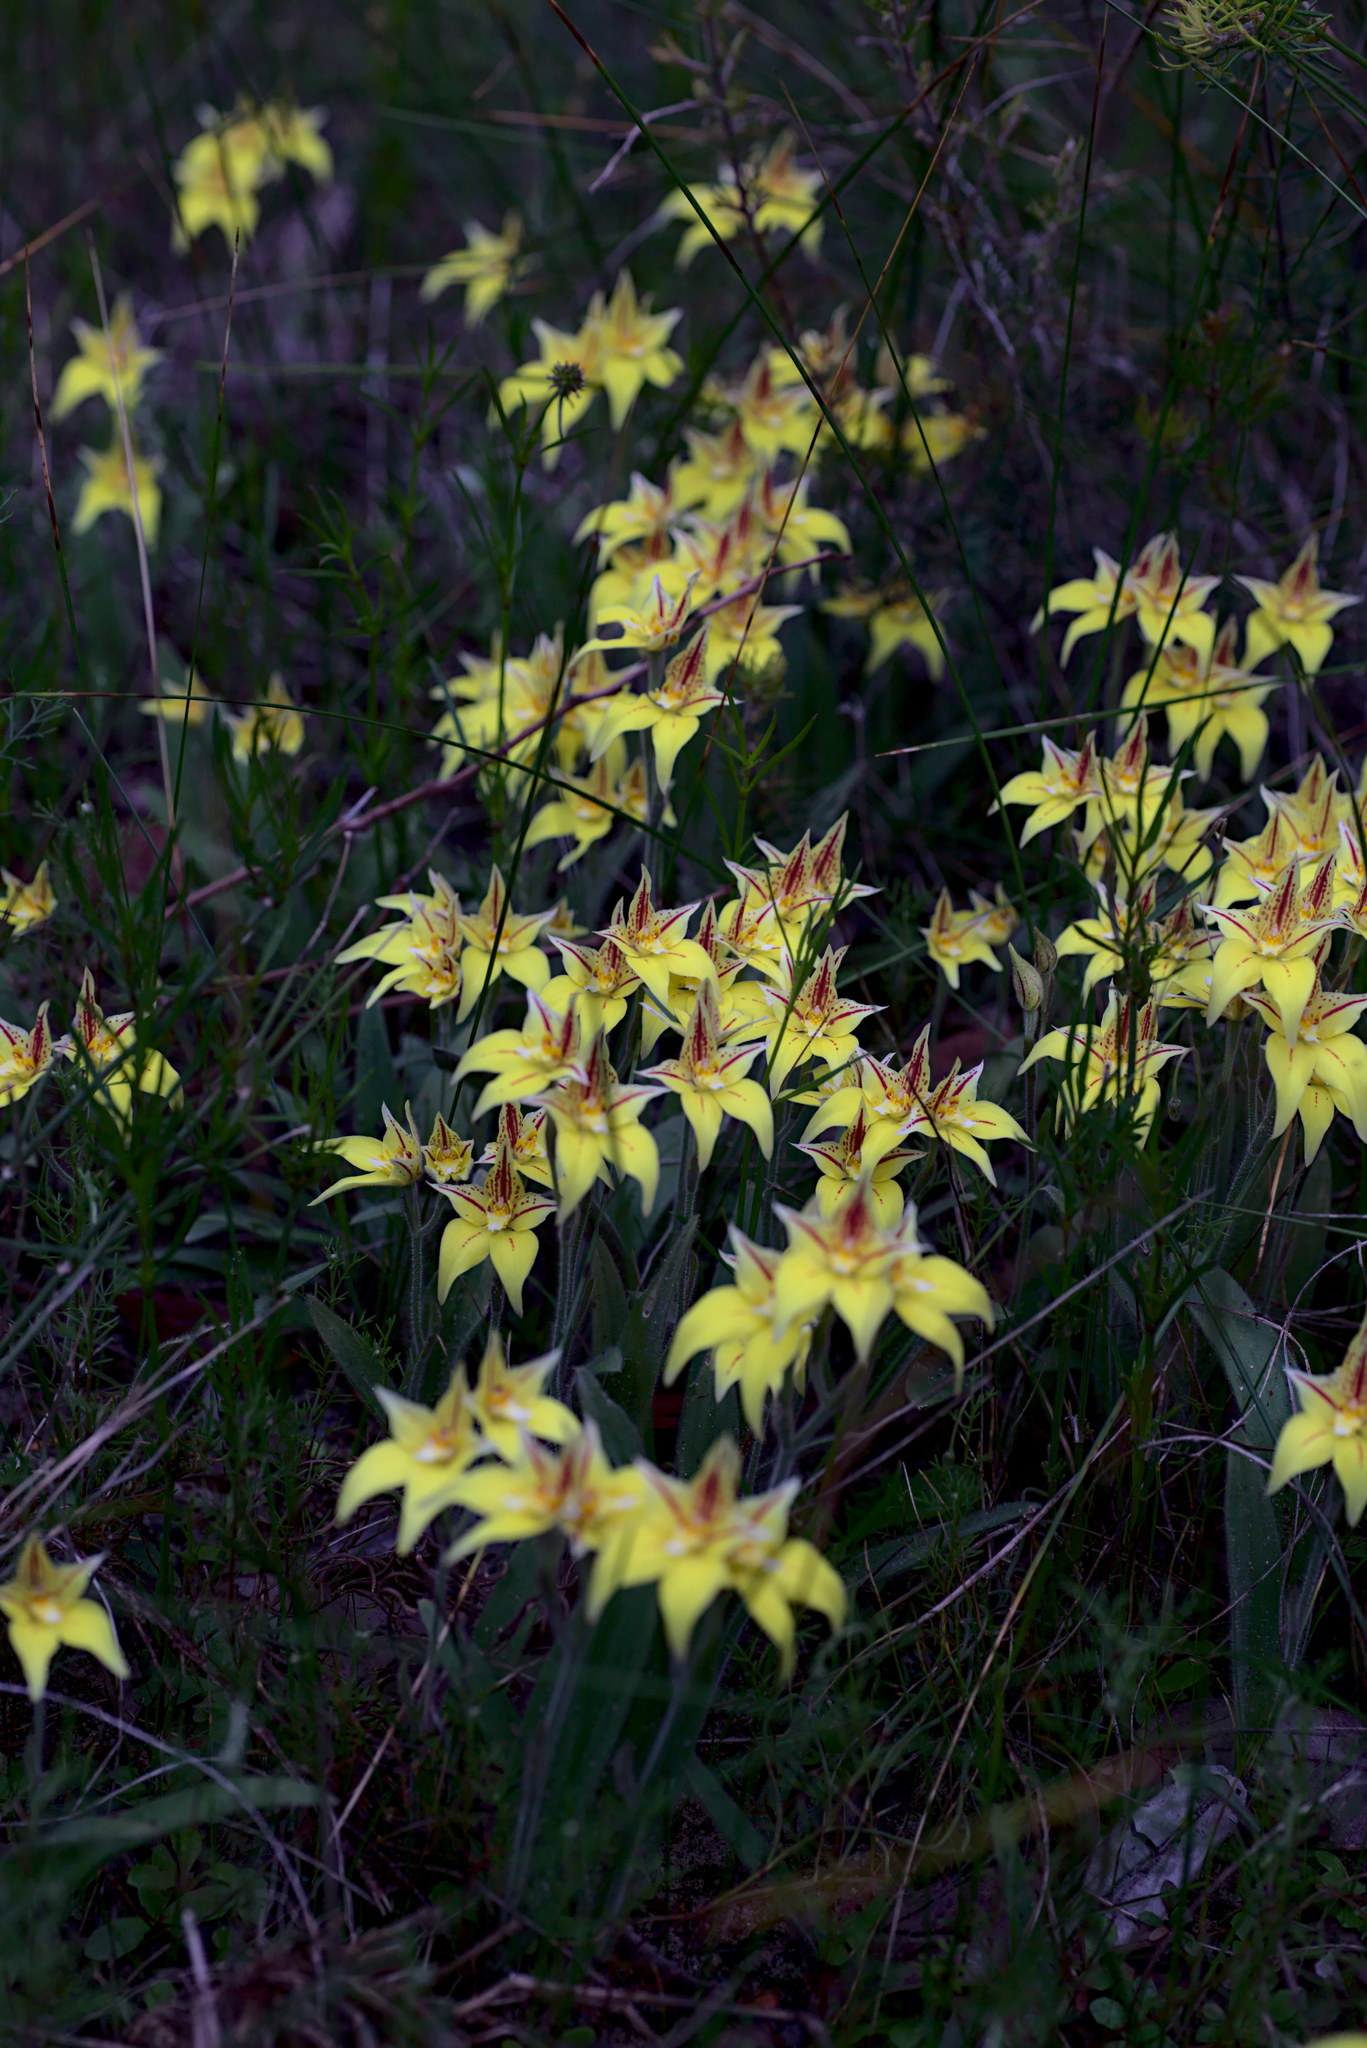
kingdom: Plantae
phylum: Tracheophyta
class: Liliopsida
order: Asparagales
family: Orchidaceae
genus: Caladenia
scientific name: Caladenia flava
